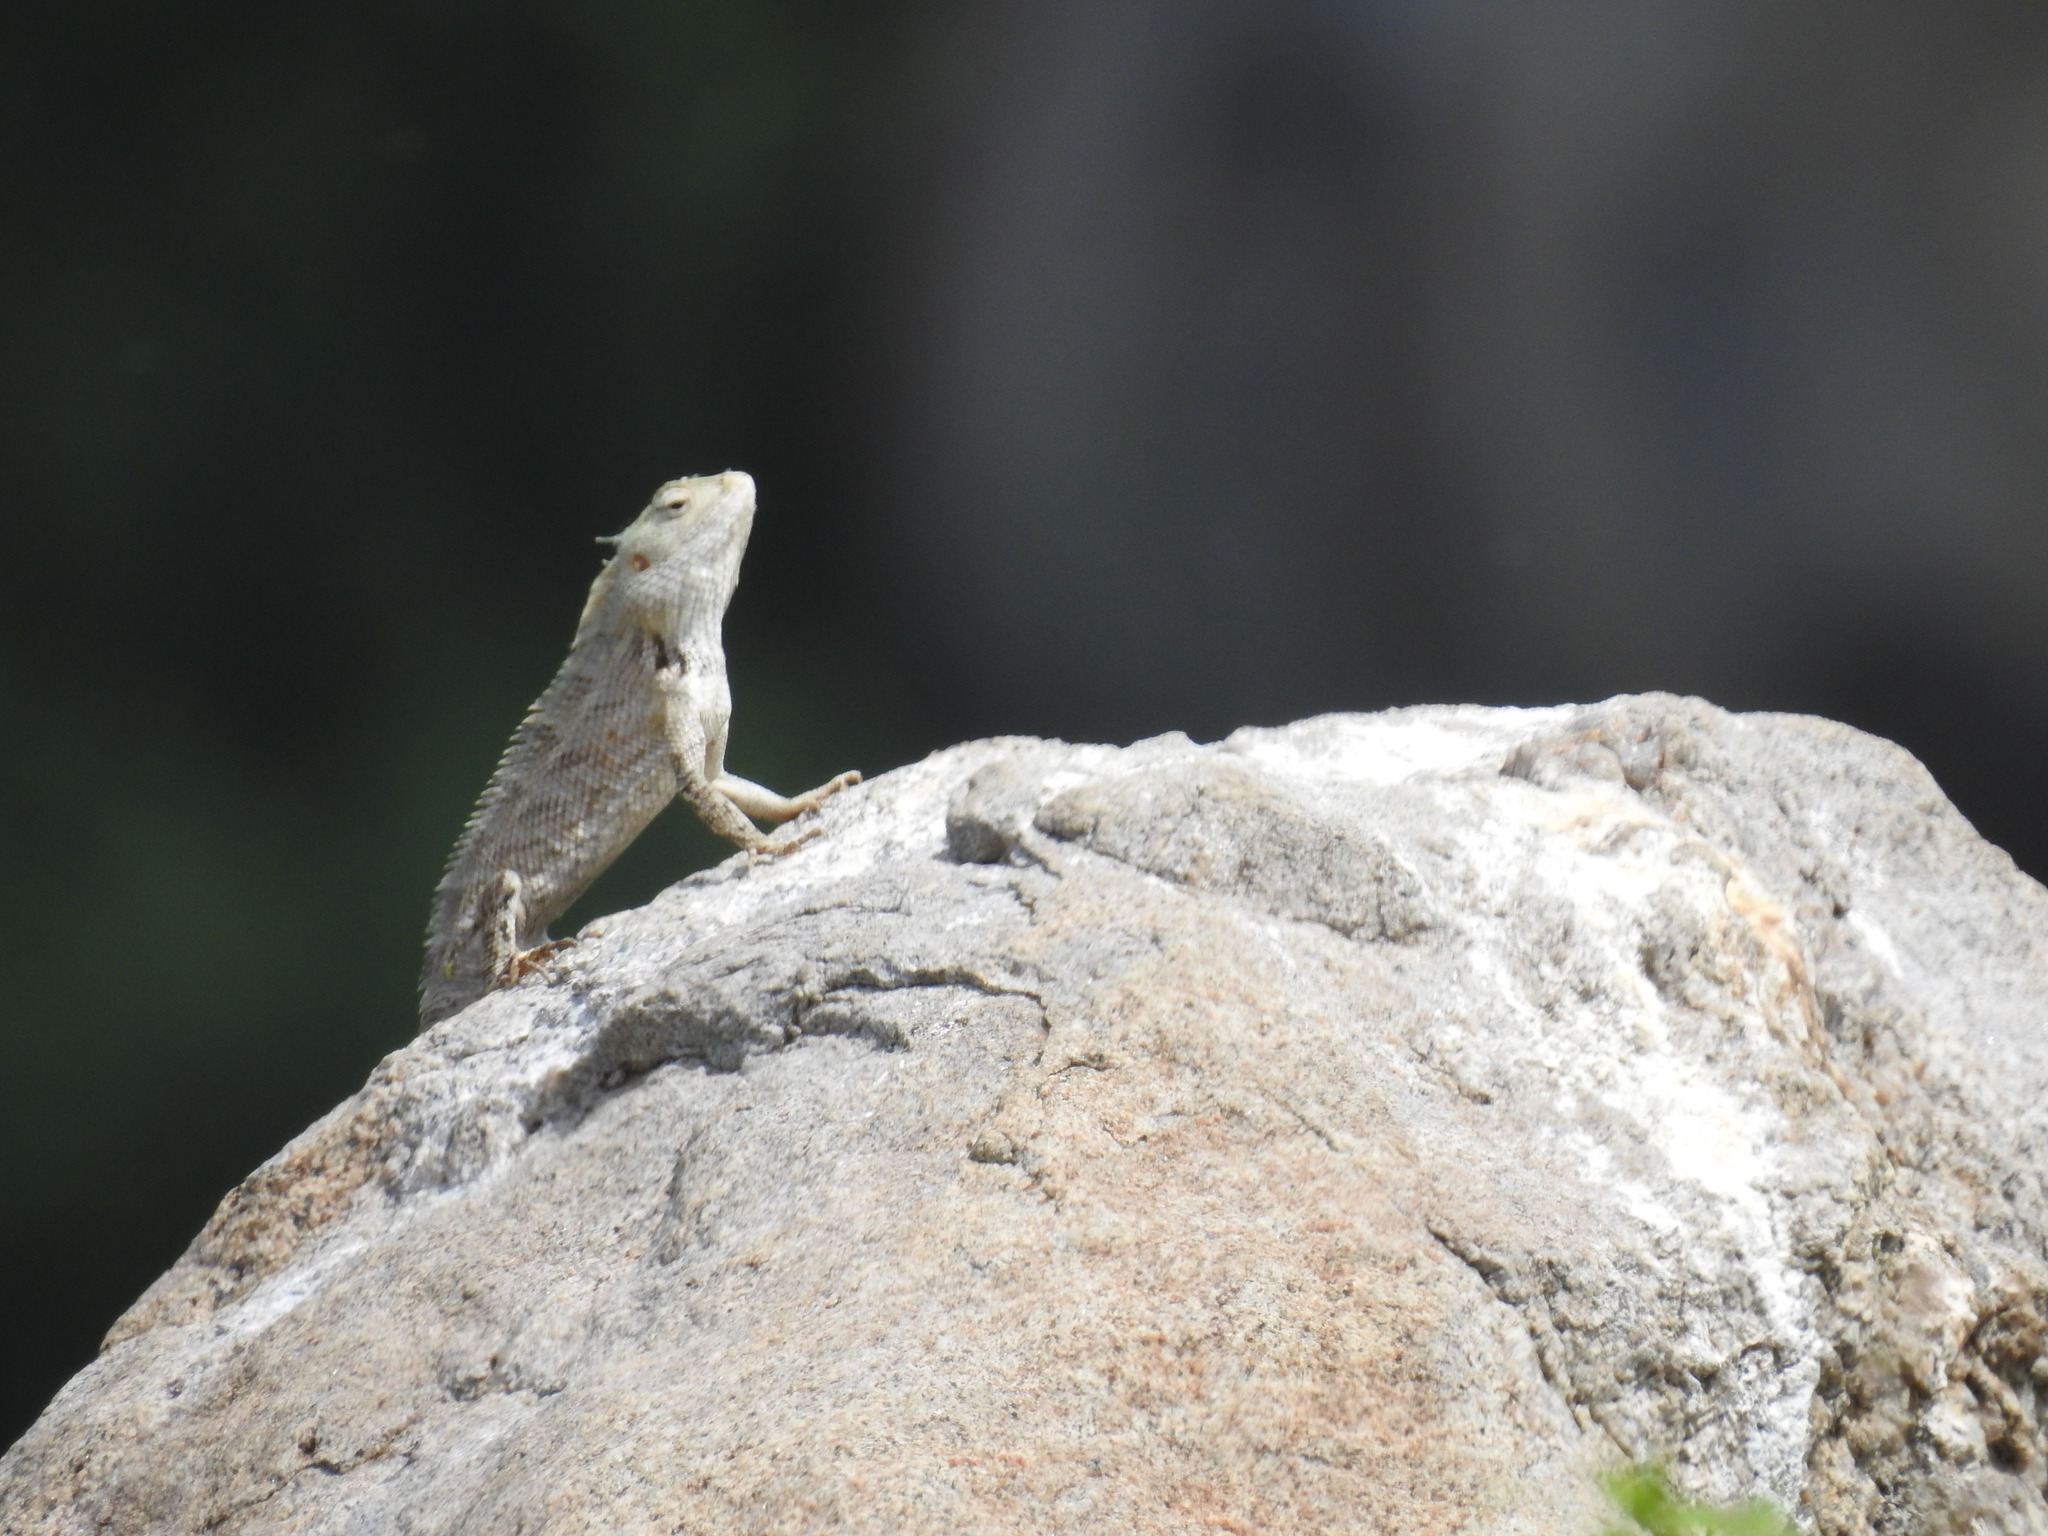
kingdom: Animalia
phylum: Chordata
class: Squamata
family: Agamidae
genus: Calotes
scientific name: Calotes versicolor
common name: Oriental garden lizard
